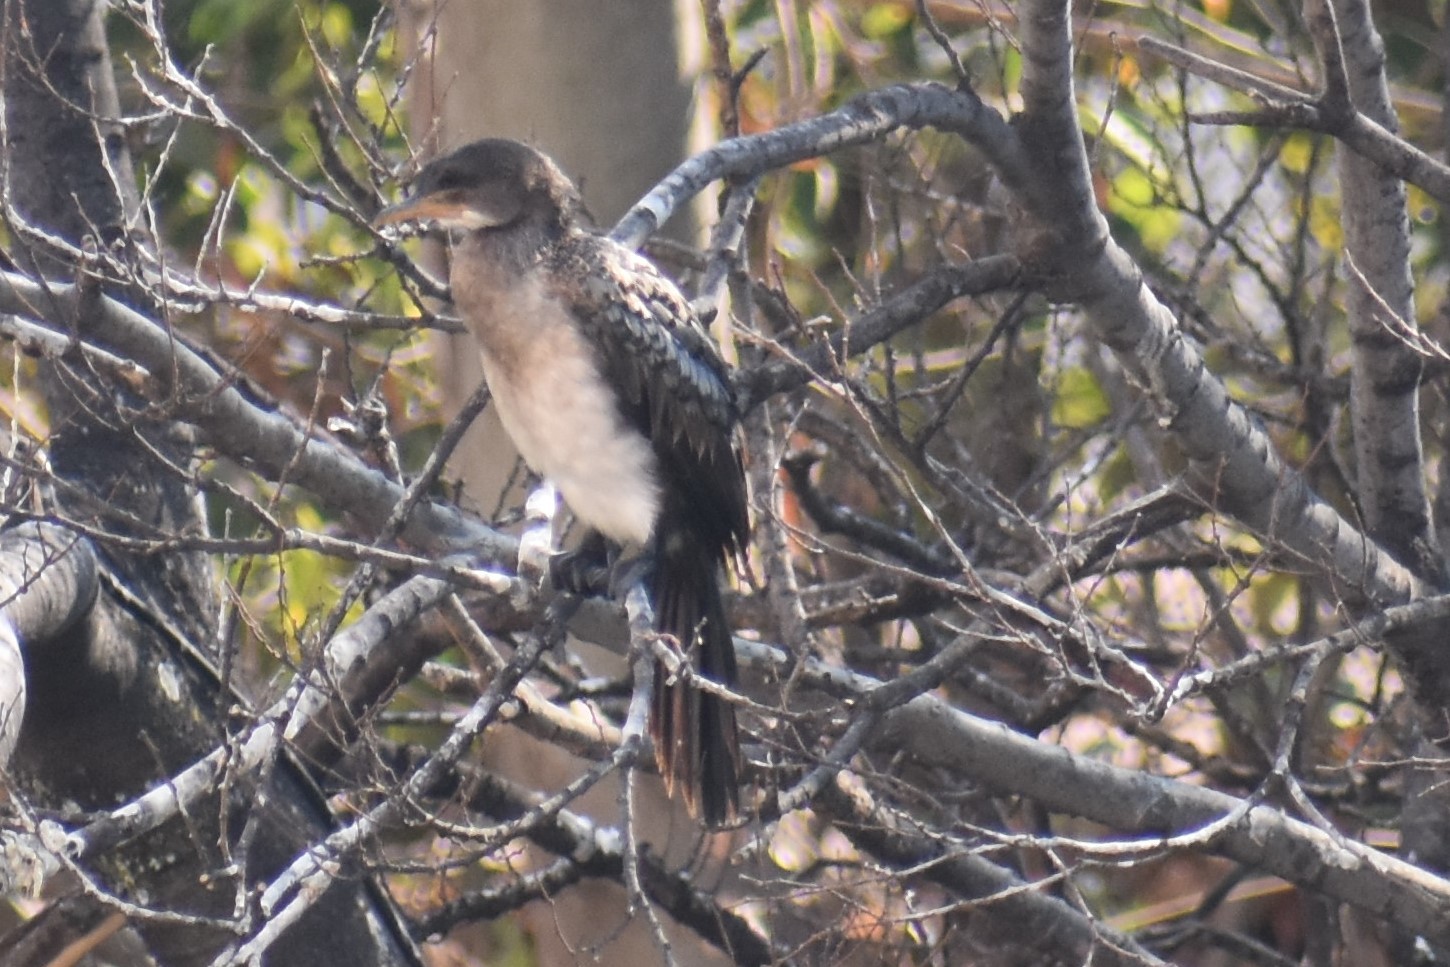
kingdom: Animalia
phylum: Chordata
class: Aves
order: Suliformes
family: Phalacrocoracidae
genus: Microcarbo
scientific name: Microcarbo africanus
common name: Long-tailed cormorant
